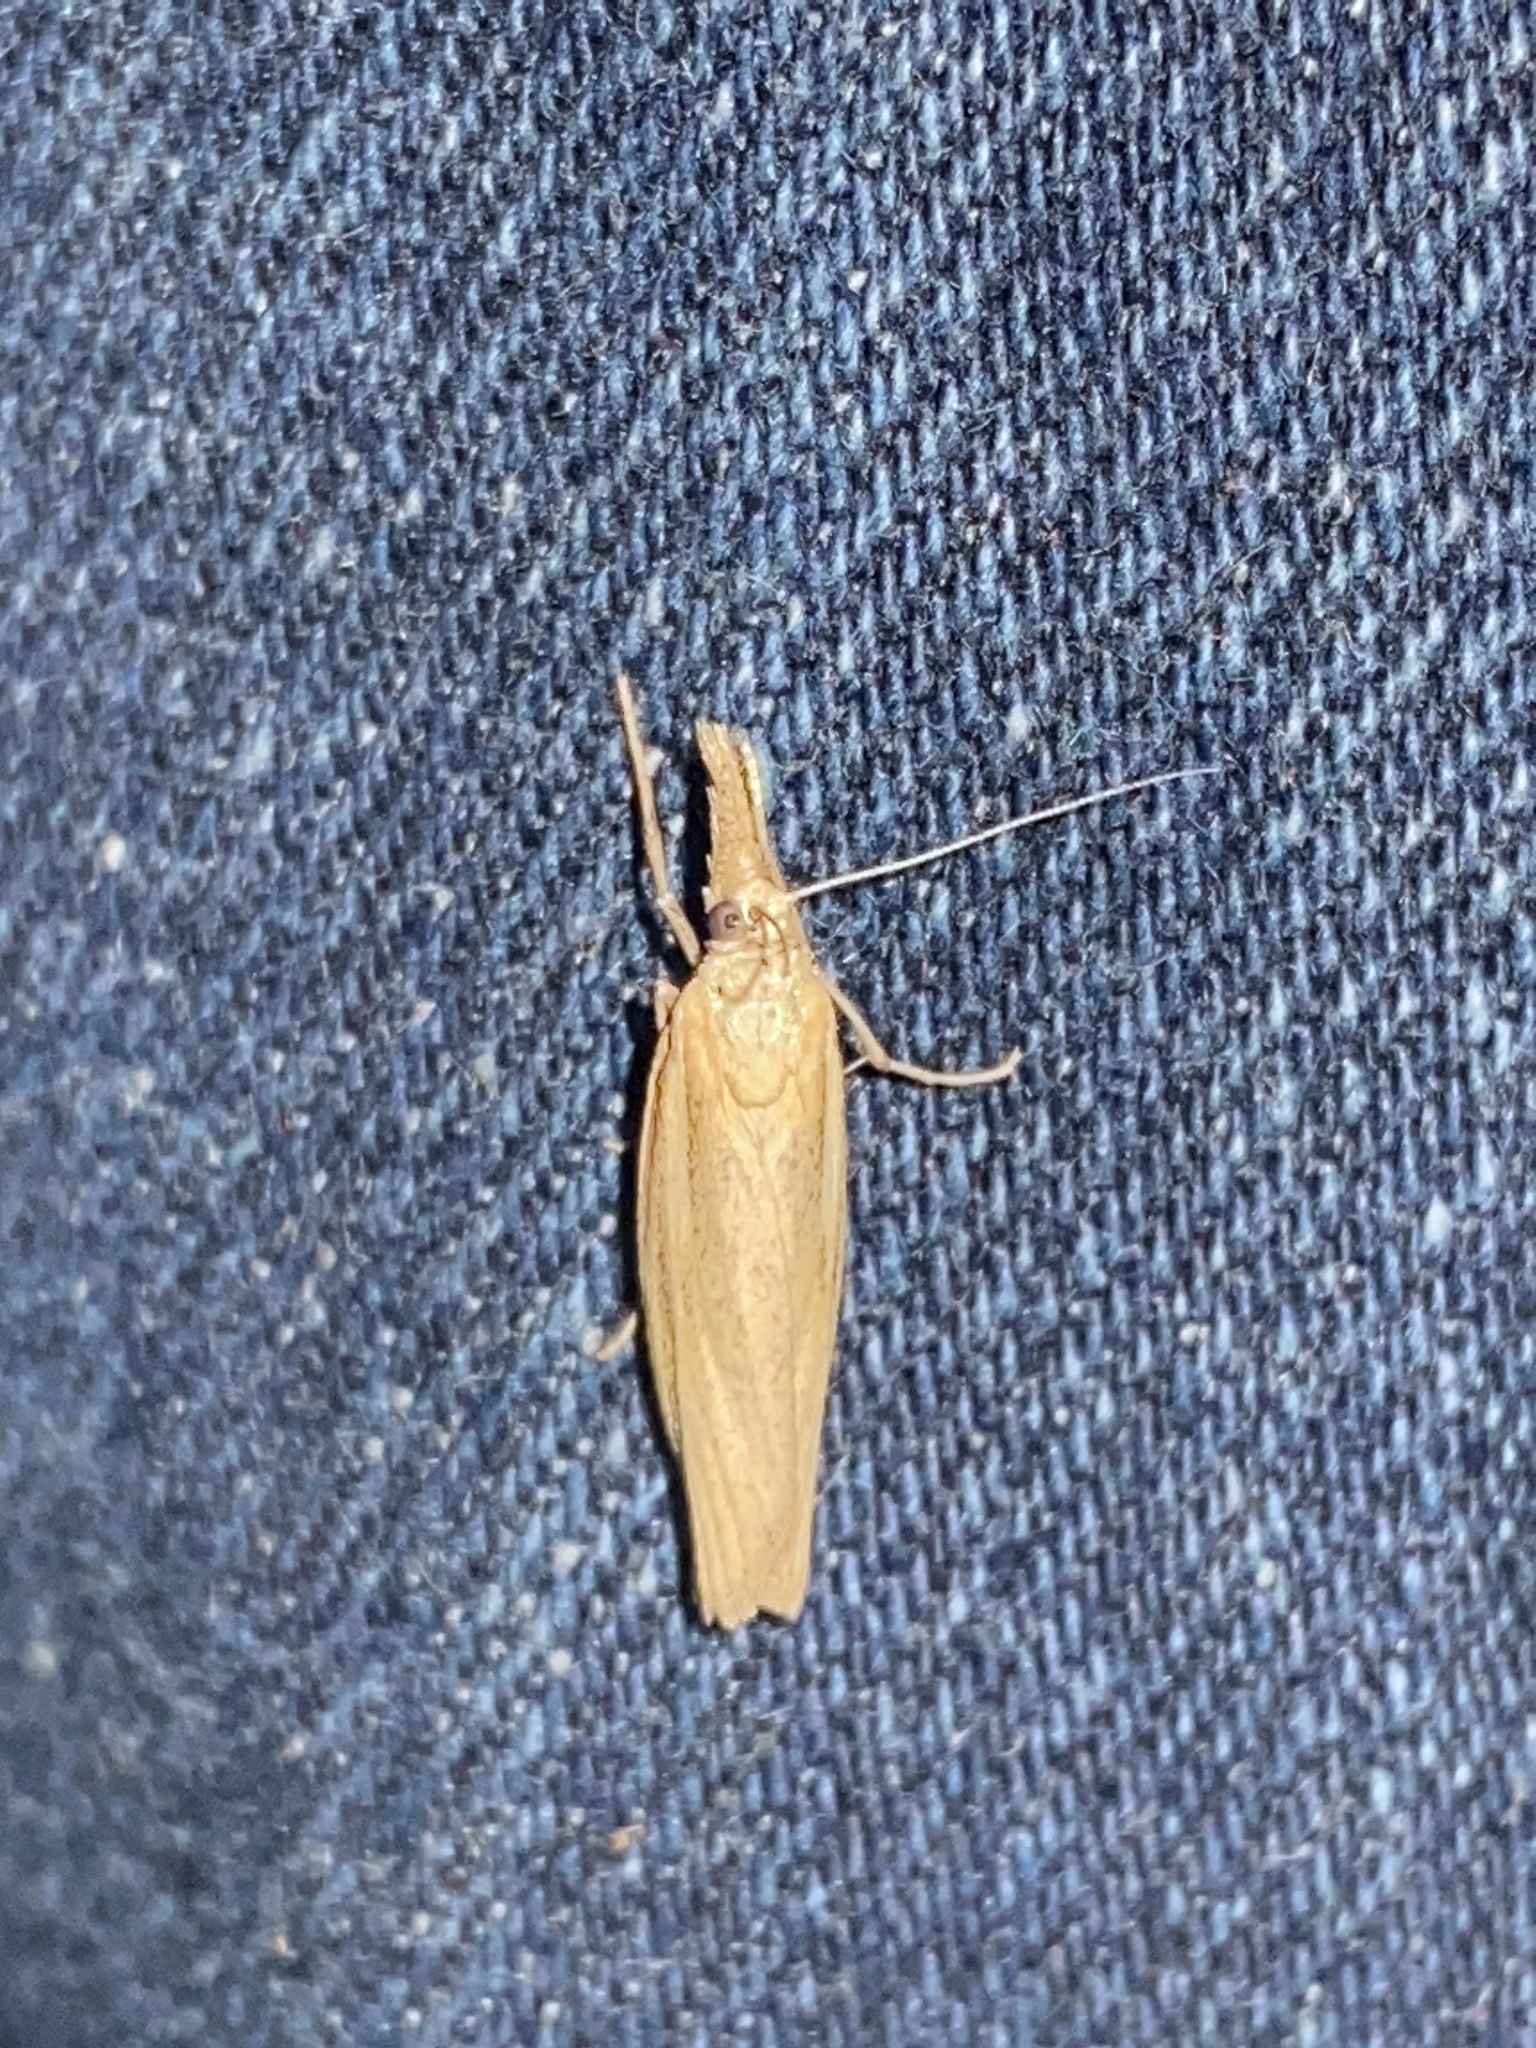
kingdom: Animalia
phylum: Arthropoda
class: Insecta
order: Lepidoptera
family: Crambidae
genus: Agriphila
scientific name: Agriphila tristellus
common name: Common grass-veneer
